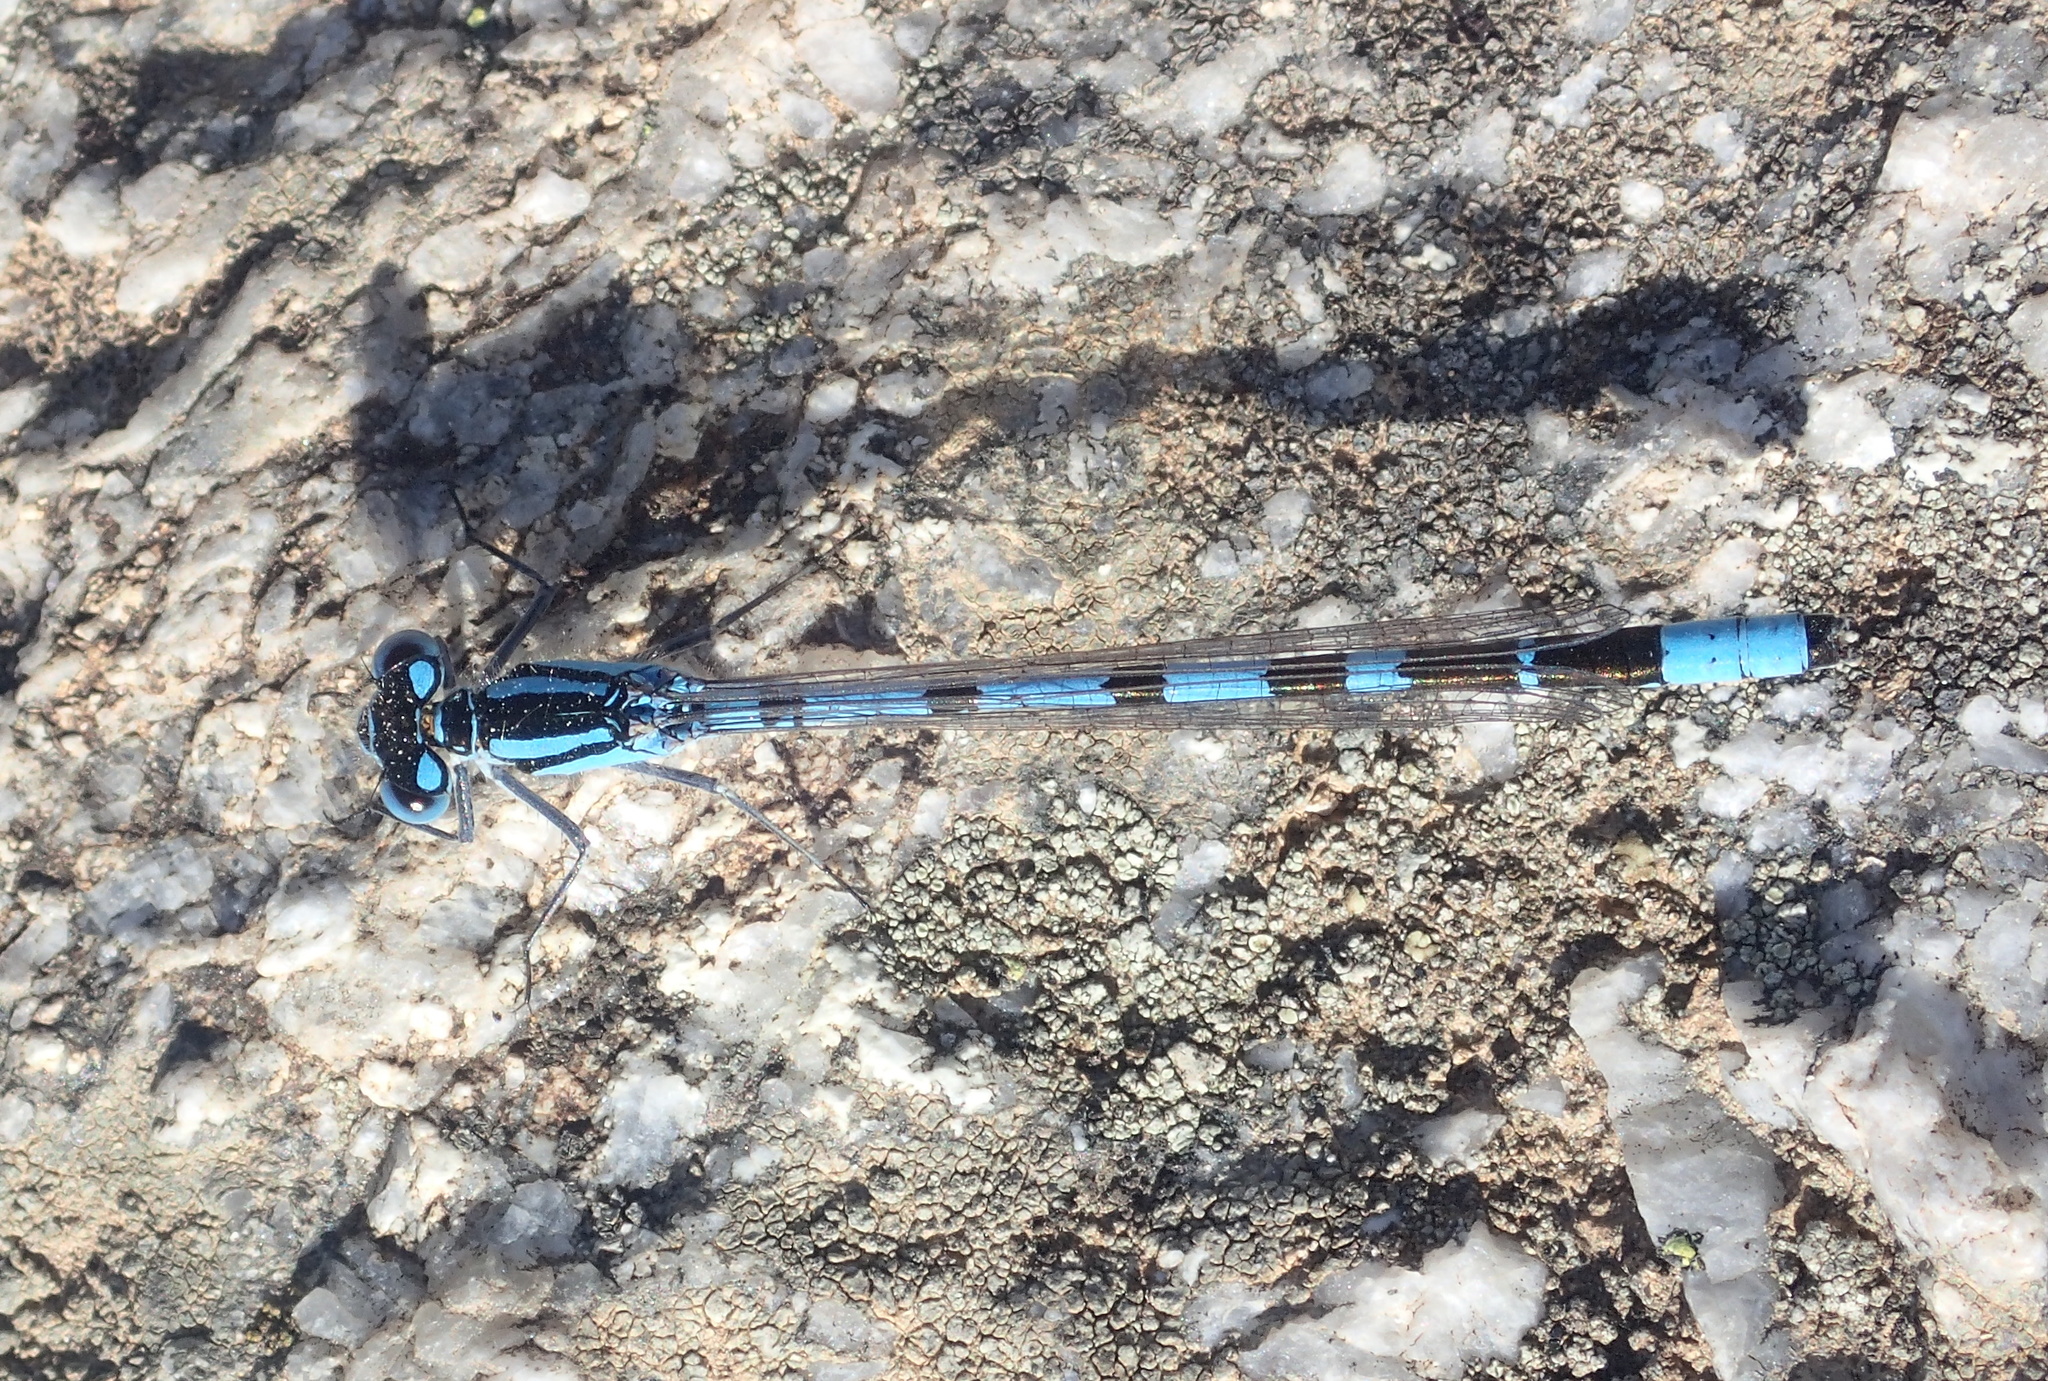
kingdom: Animalia
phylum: Arthropoda
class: Insecta
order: Odonata
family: Coenagrionidae
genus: Enallagma
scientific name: Enallagma cyathigerum
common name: Common blue damselfly
